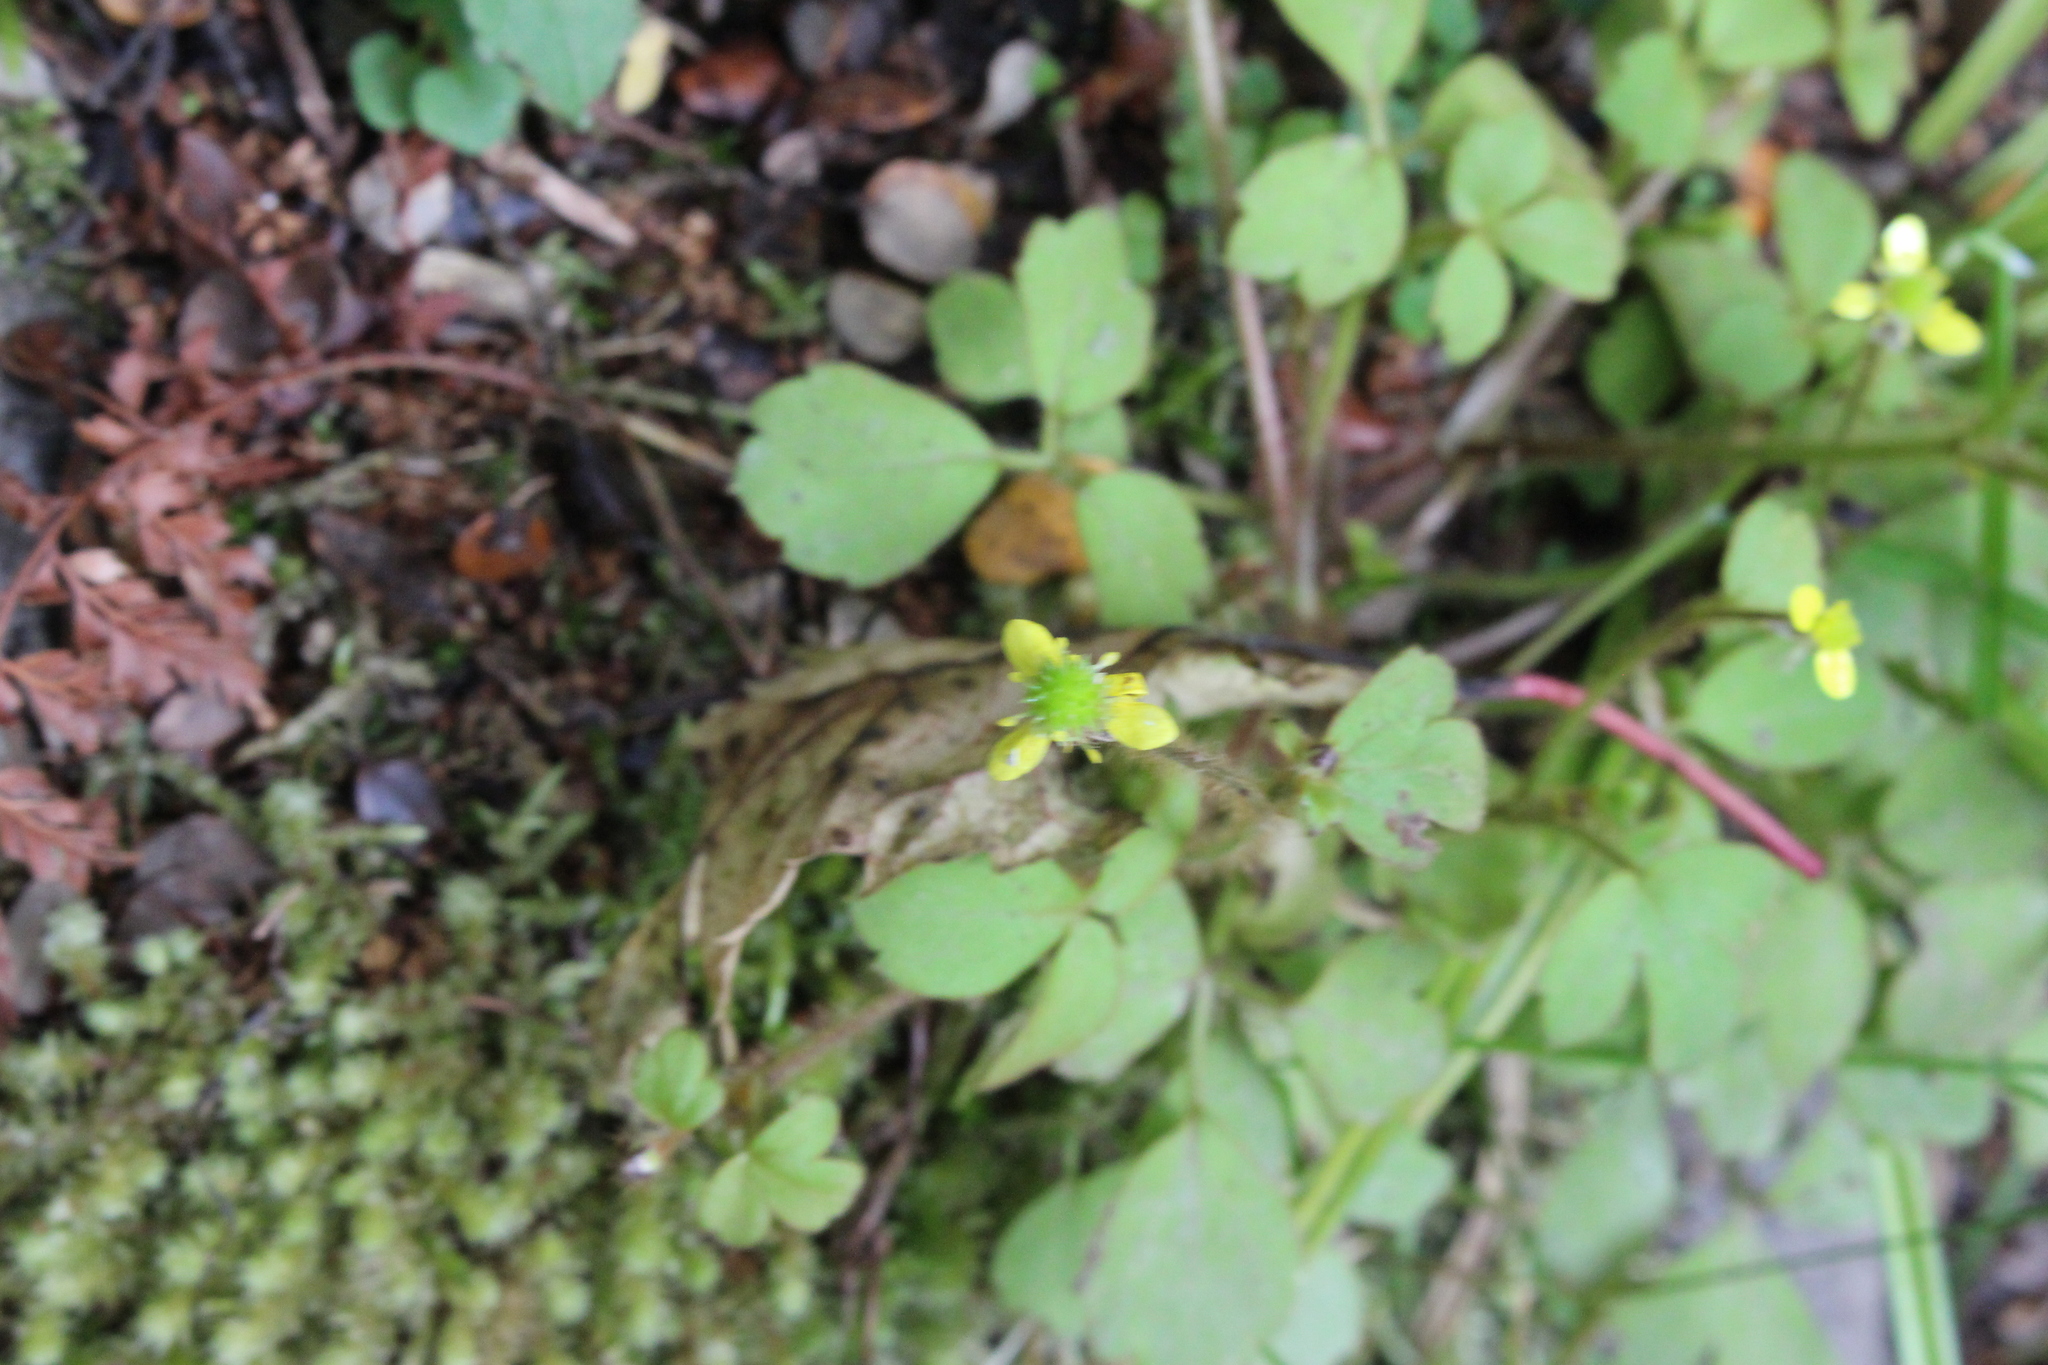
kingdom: Plantae
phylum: Tracheophyta
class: Magnoliopsida
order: Ranunculales
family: Ranunculaceae
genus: Ranunculus
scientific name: Ranunculus reflexus
